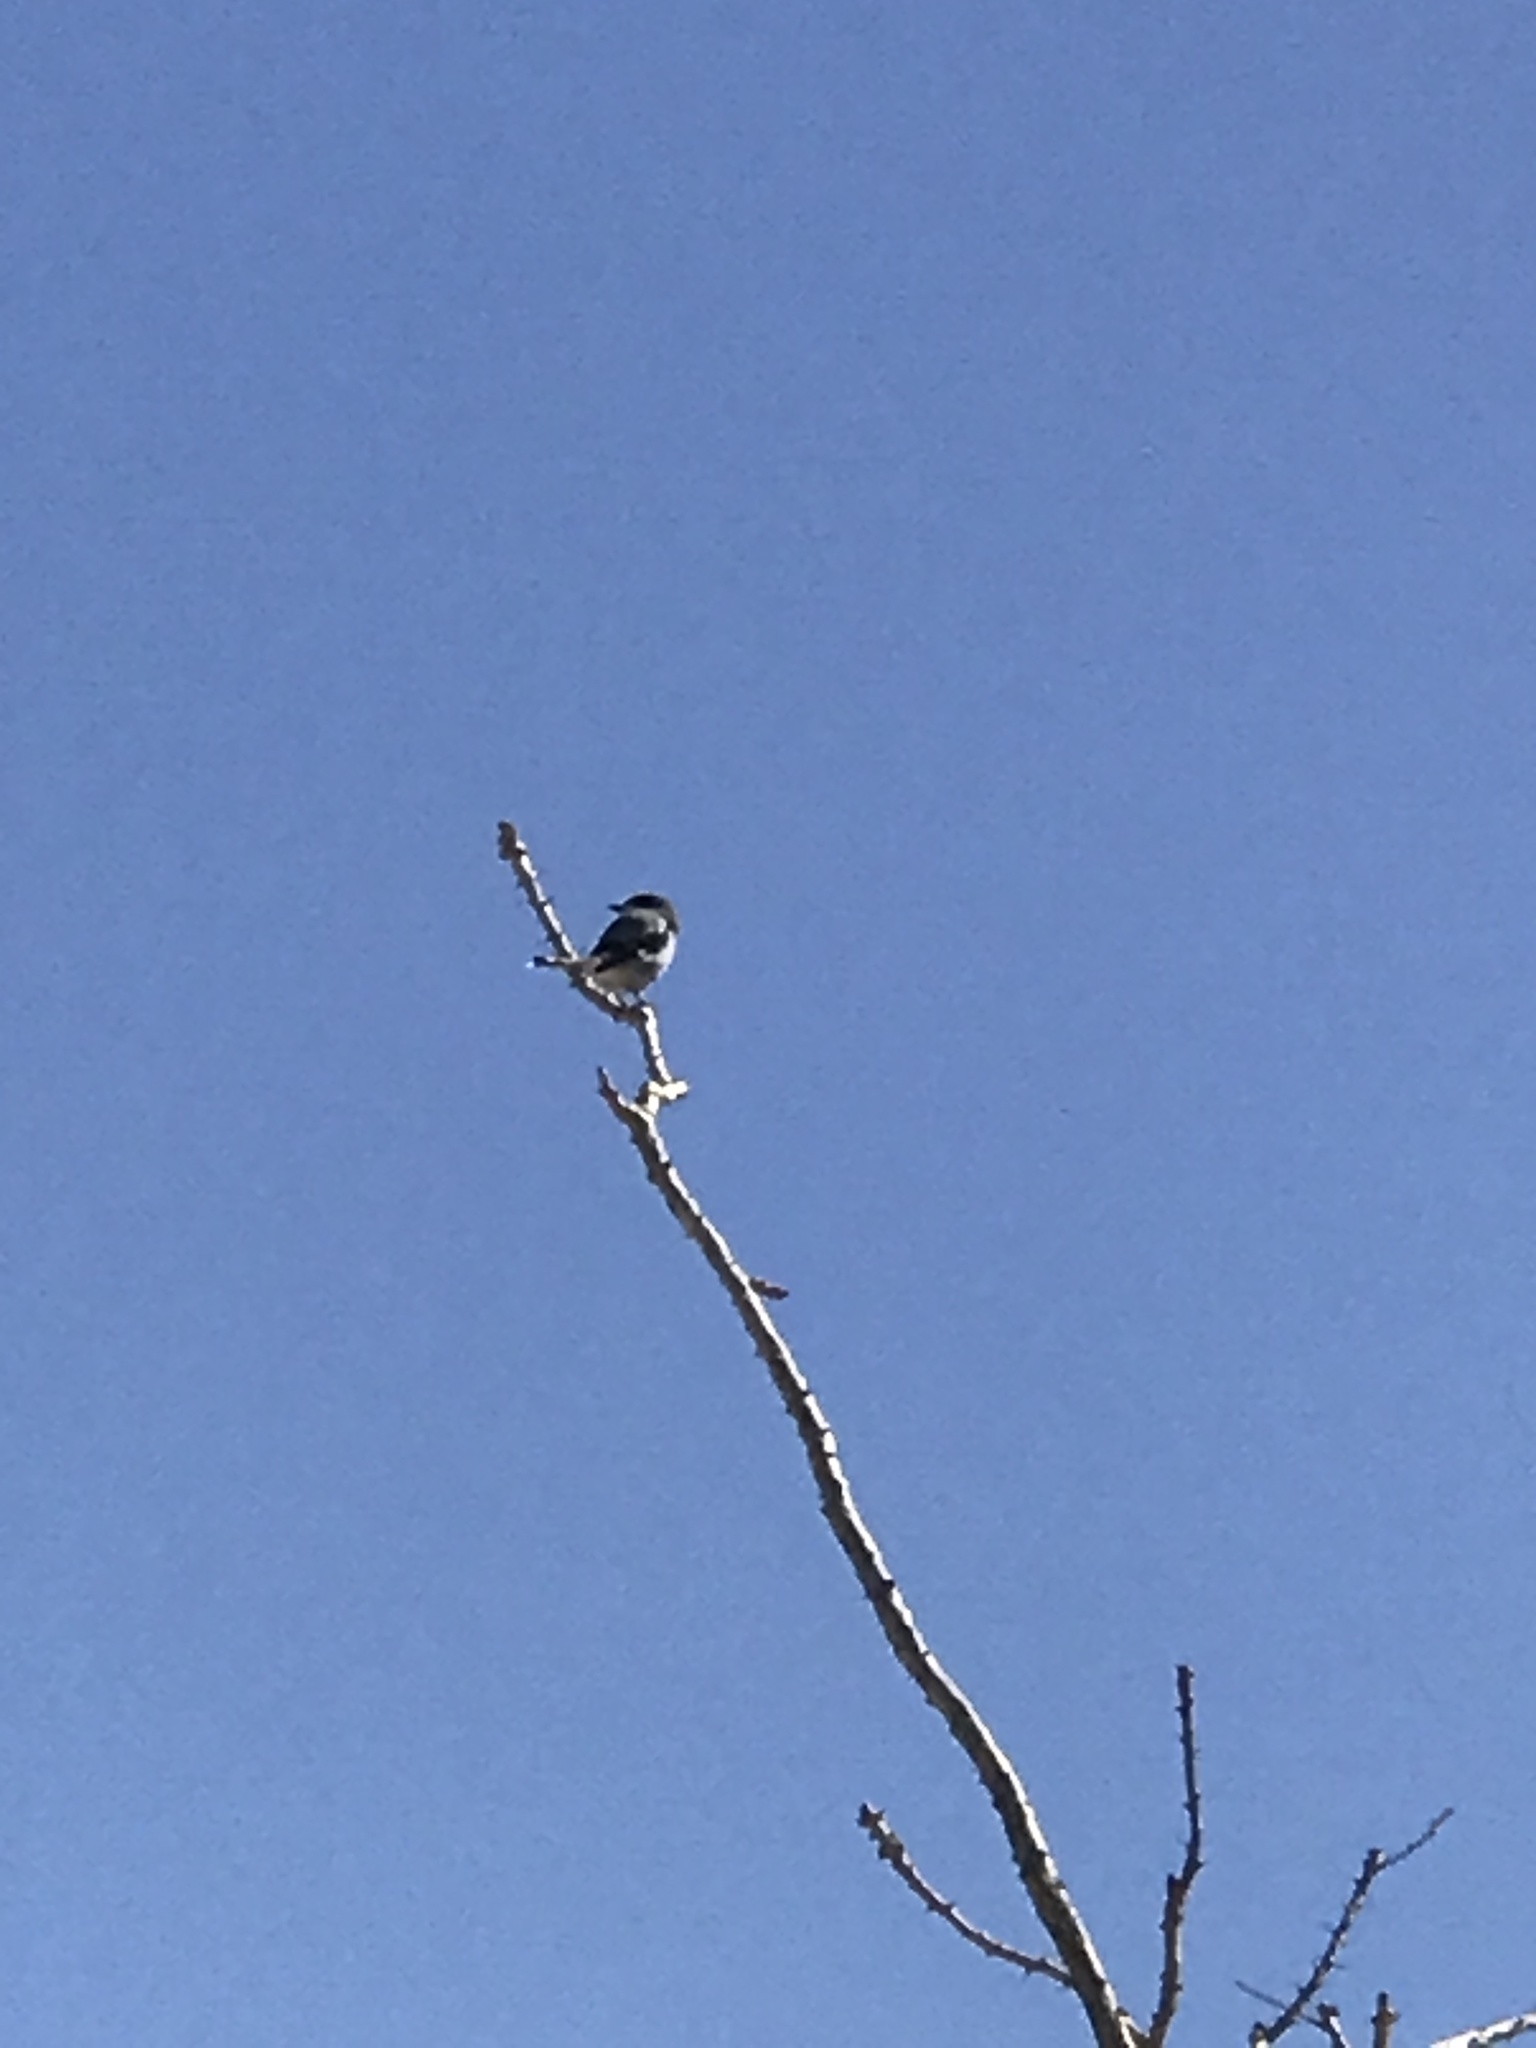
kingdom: Animalia
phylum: Chordata
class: Aves
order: Passeriformes
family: Laniidae
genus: Lanius
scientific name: Lanius ludovicianus
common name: Loggerhead shrike
